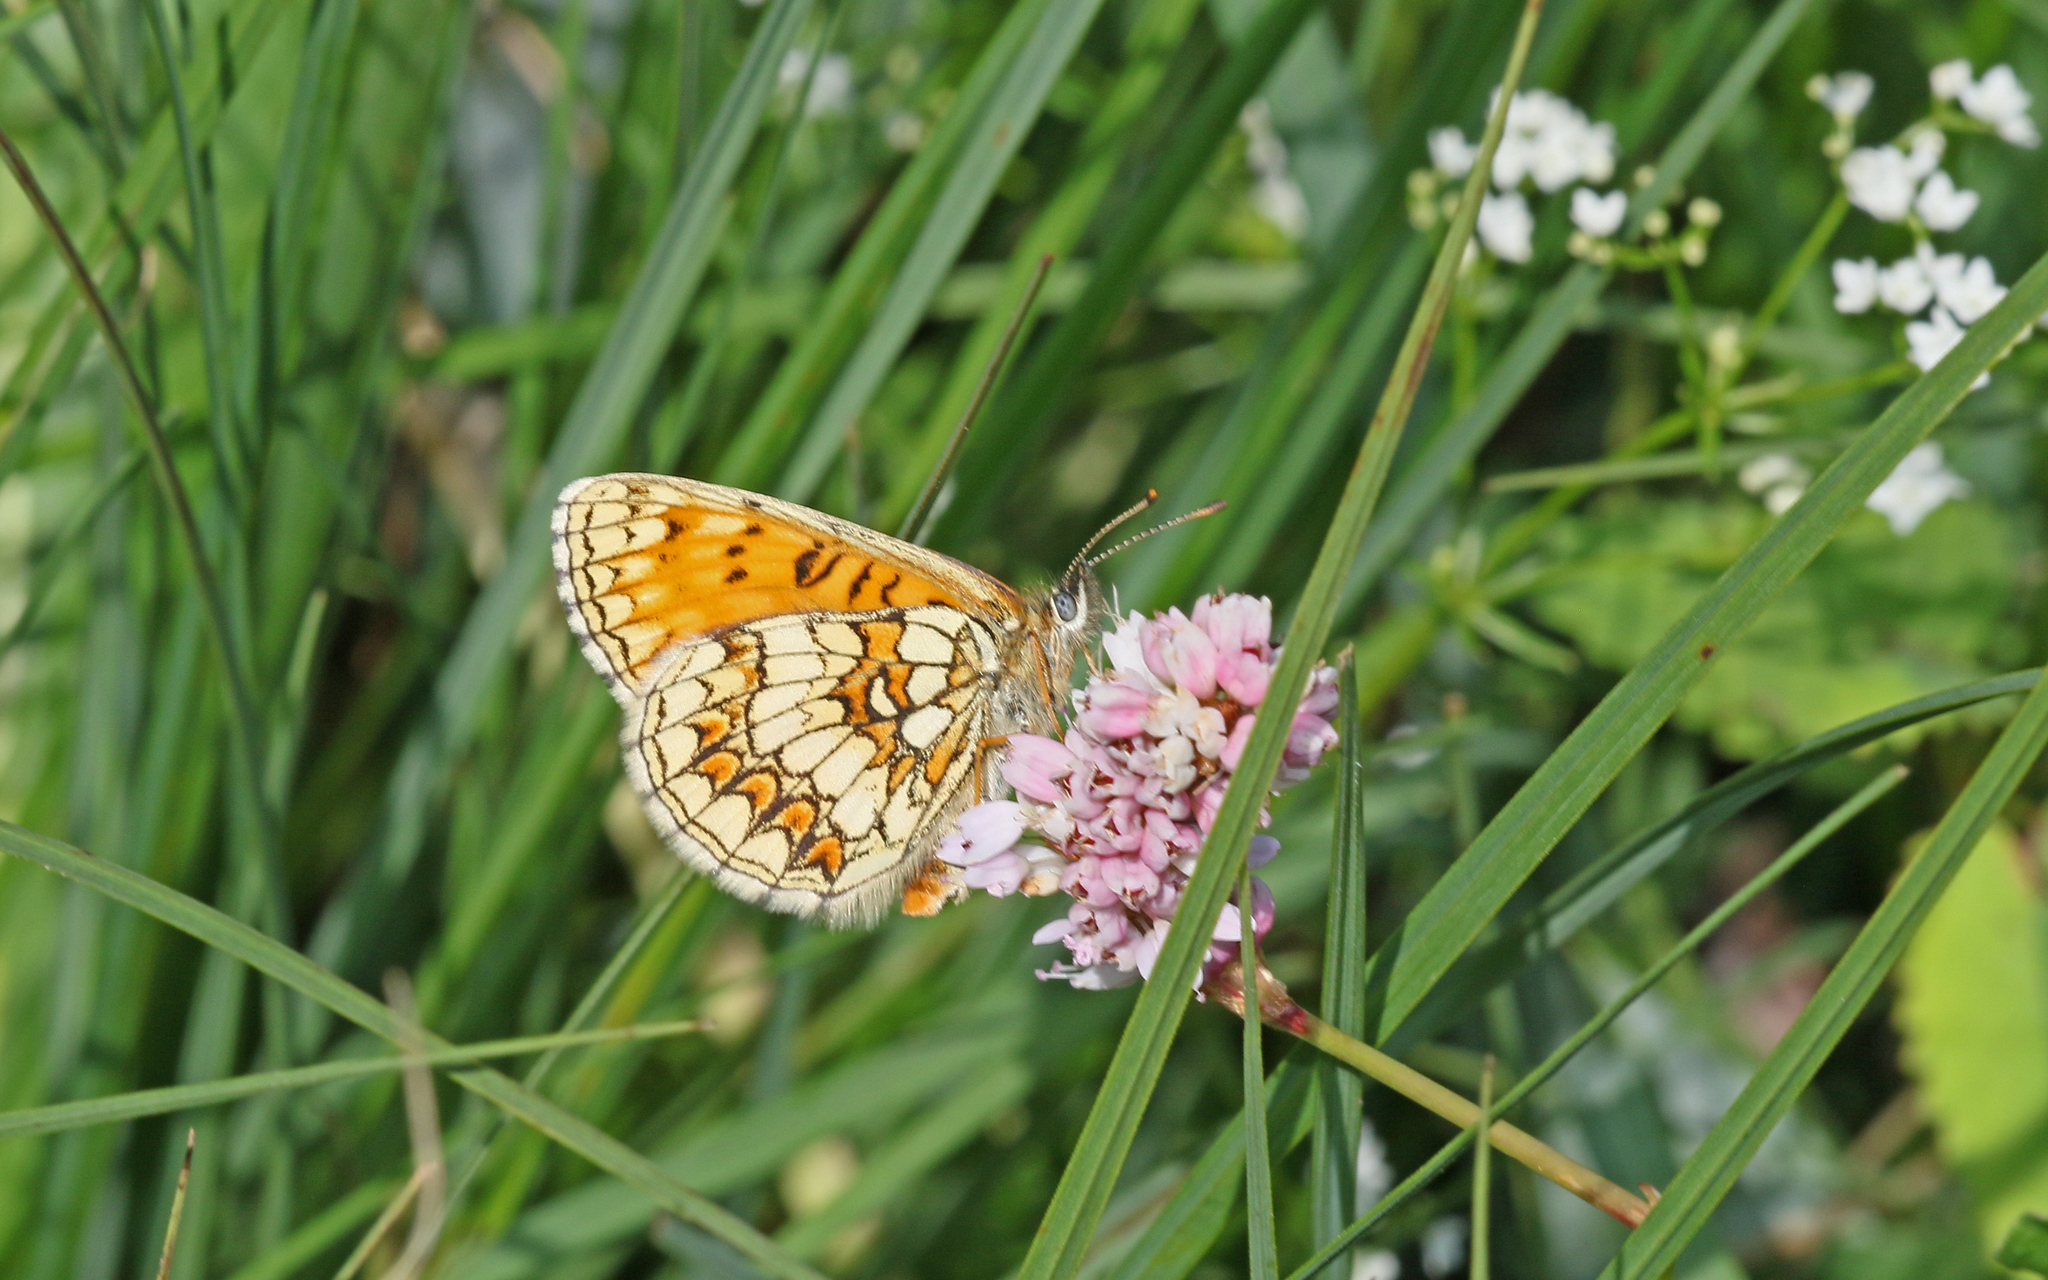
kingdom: Animalia
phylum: Arthropoda
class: Insecta
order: Lepidoptera
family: Nymphalidae
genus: Melitaea
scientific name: Melitaea athalia
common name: Heath fritillary
